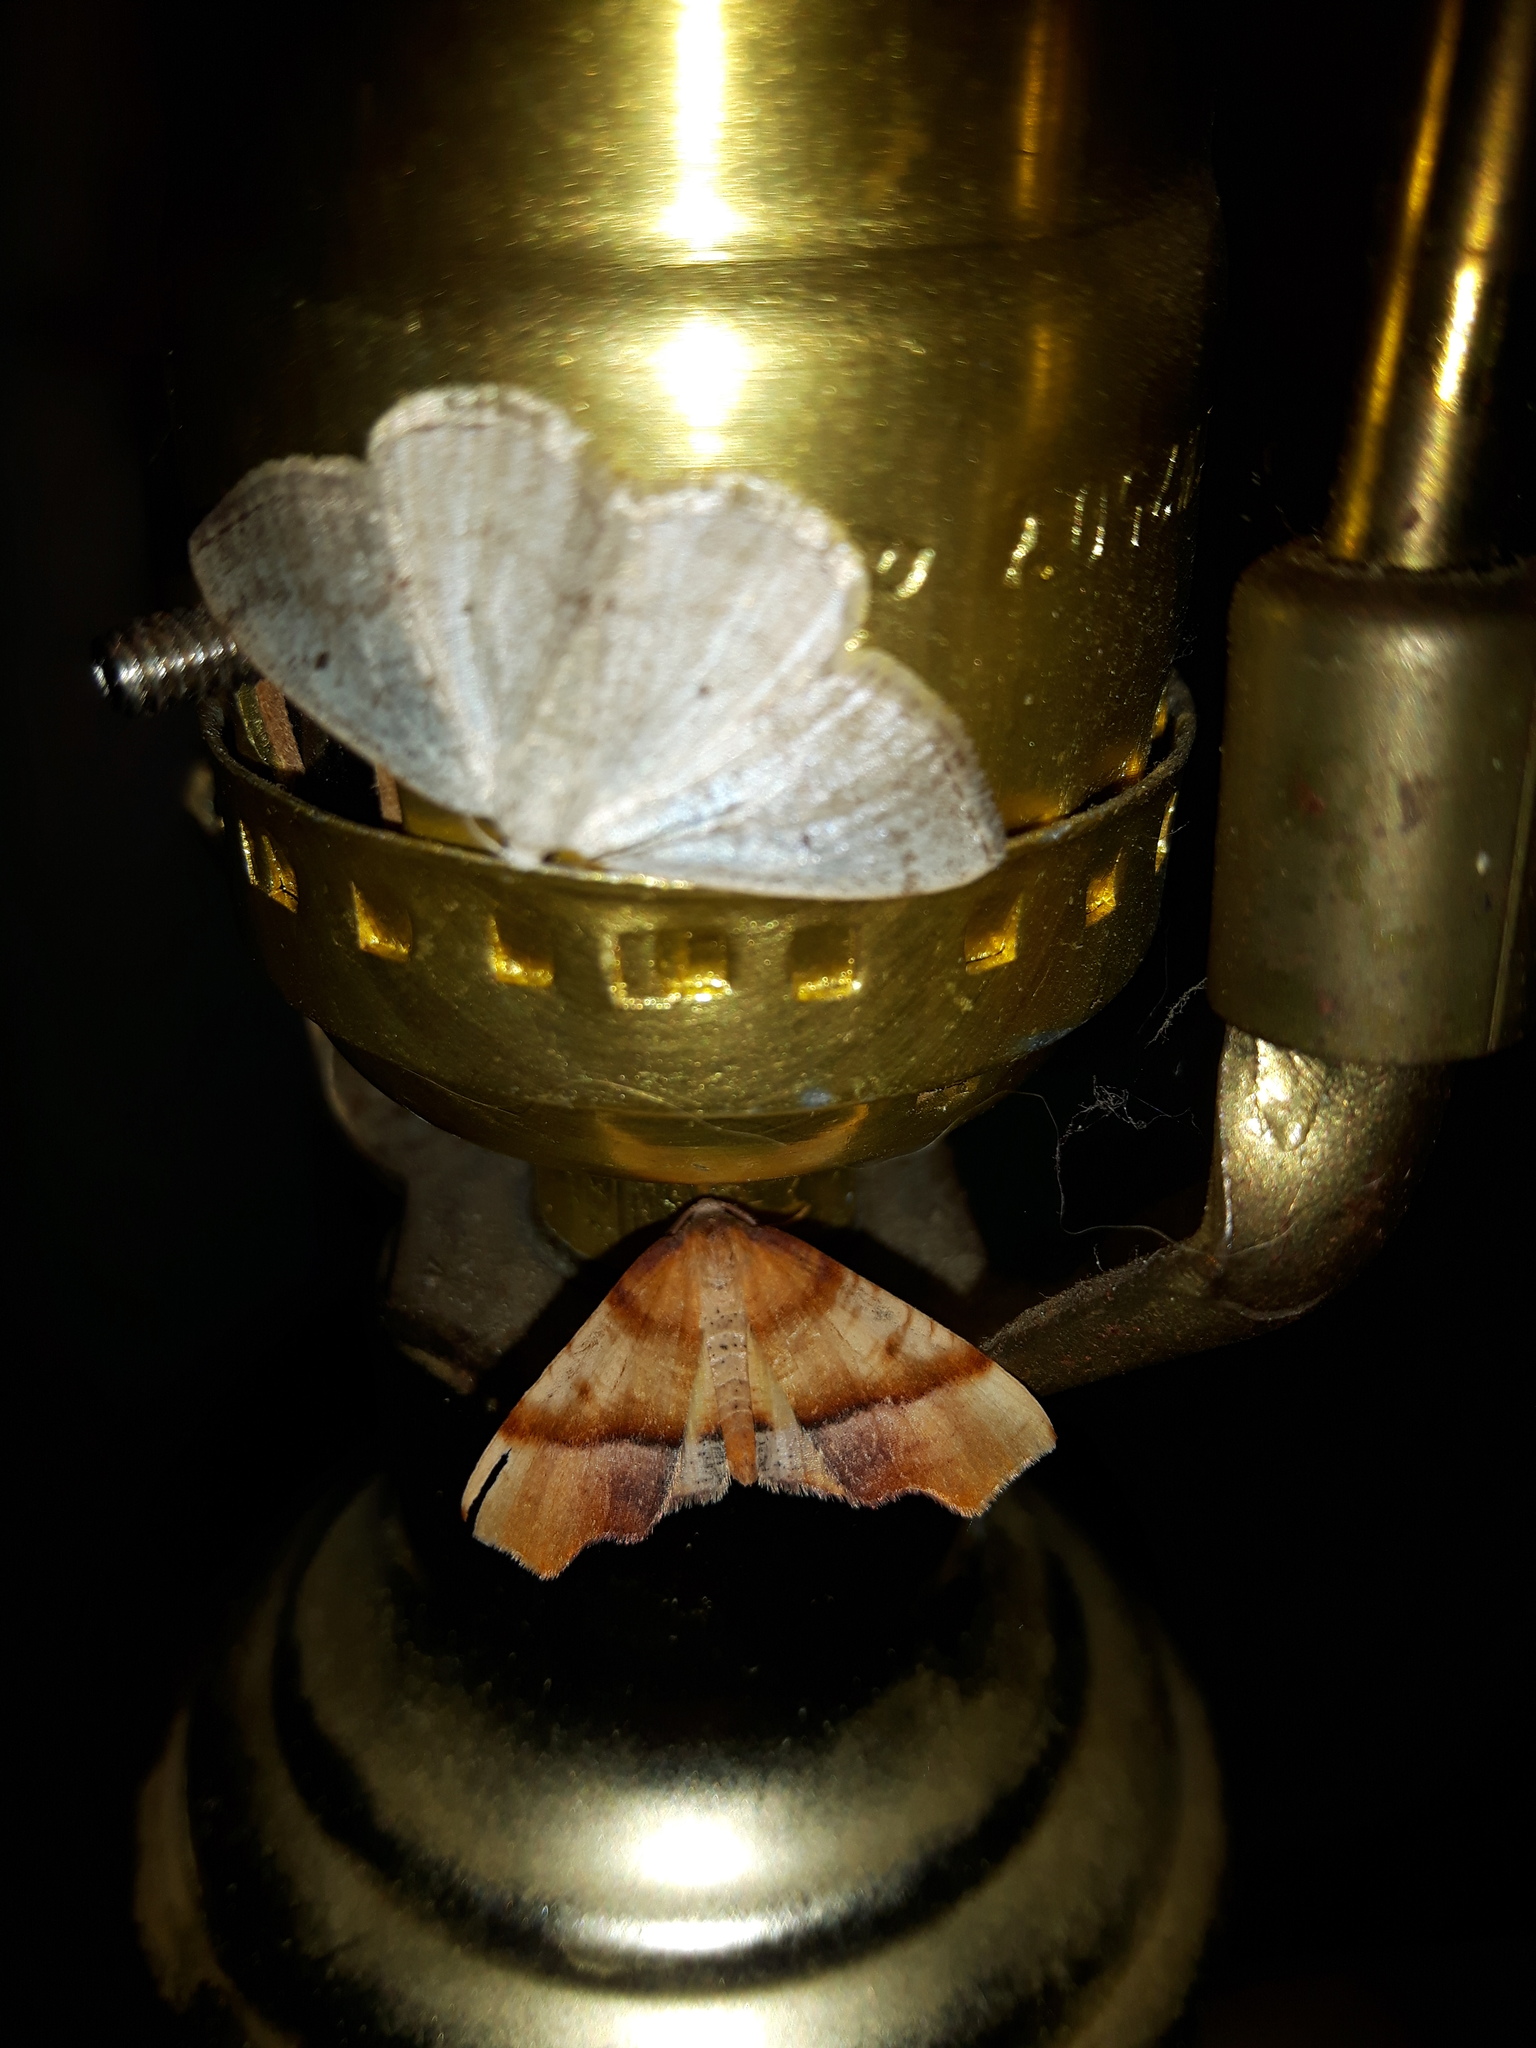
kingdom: Animalia
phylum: Arthropoda
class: Insecta
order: Lepidoptera
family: Geometridae
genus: Lomographa
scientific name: Lomographa glomeraria
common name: Gray spring moth
